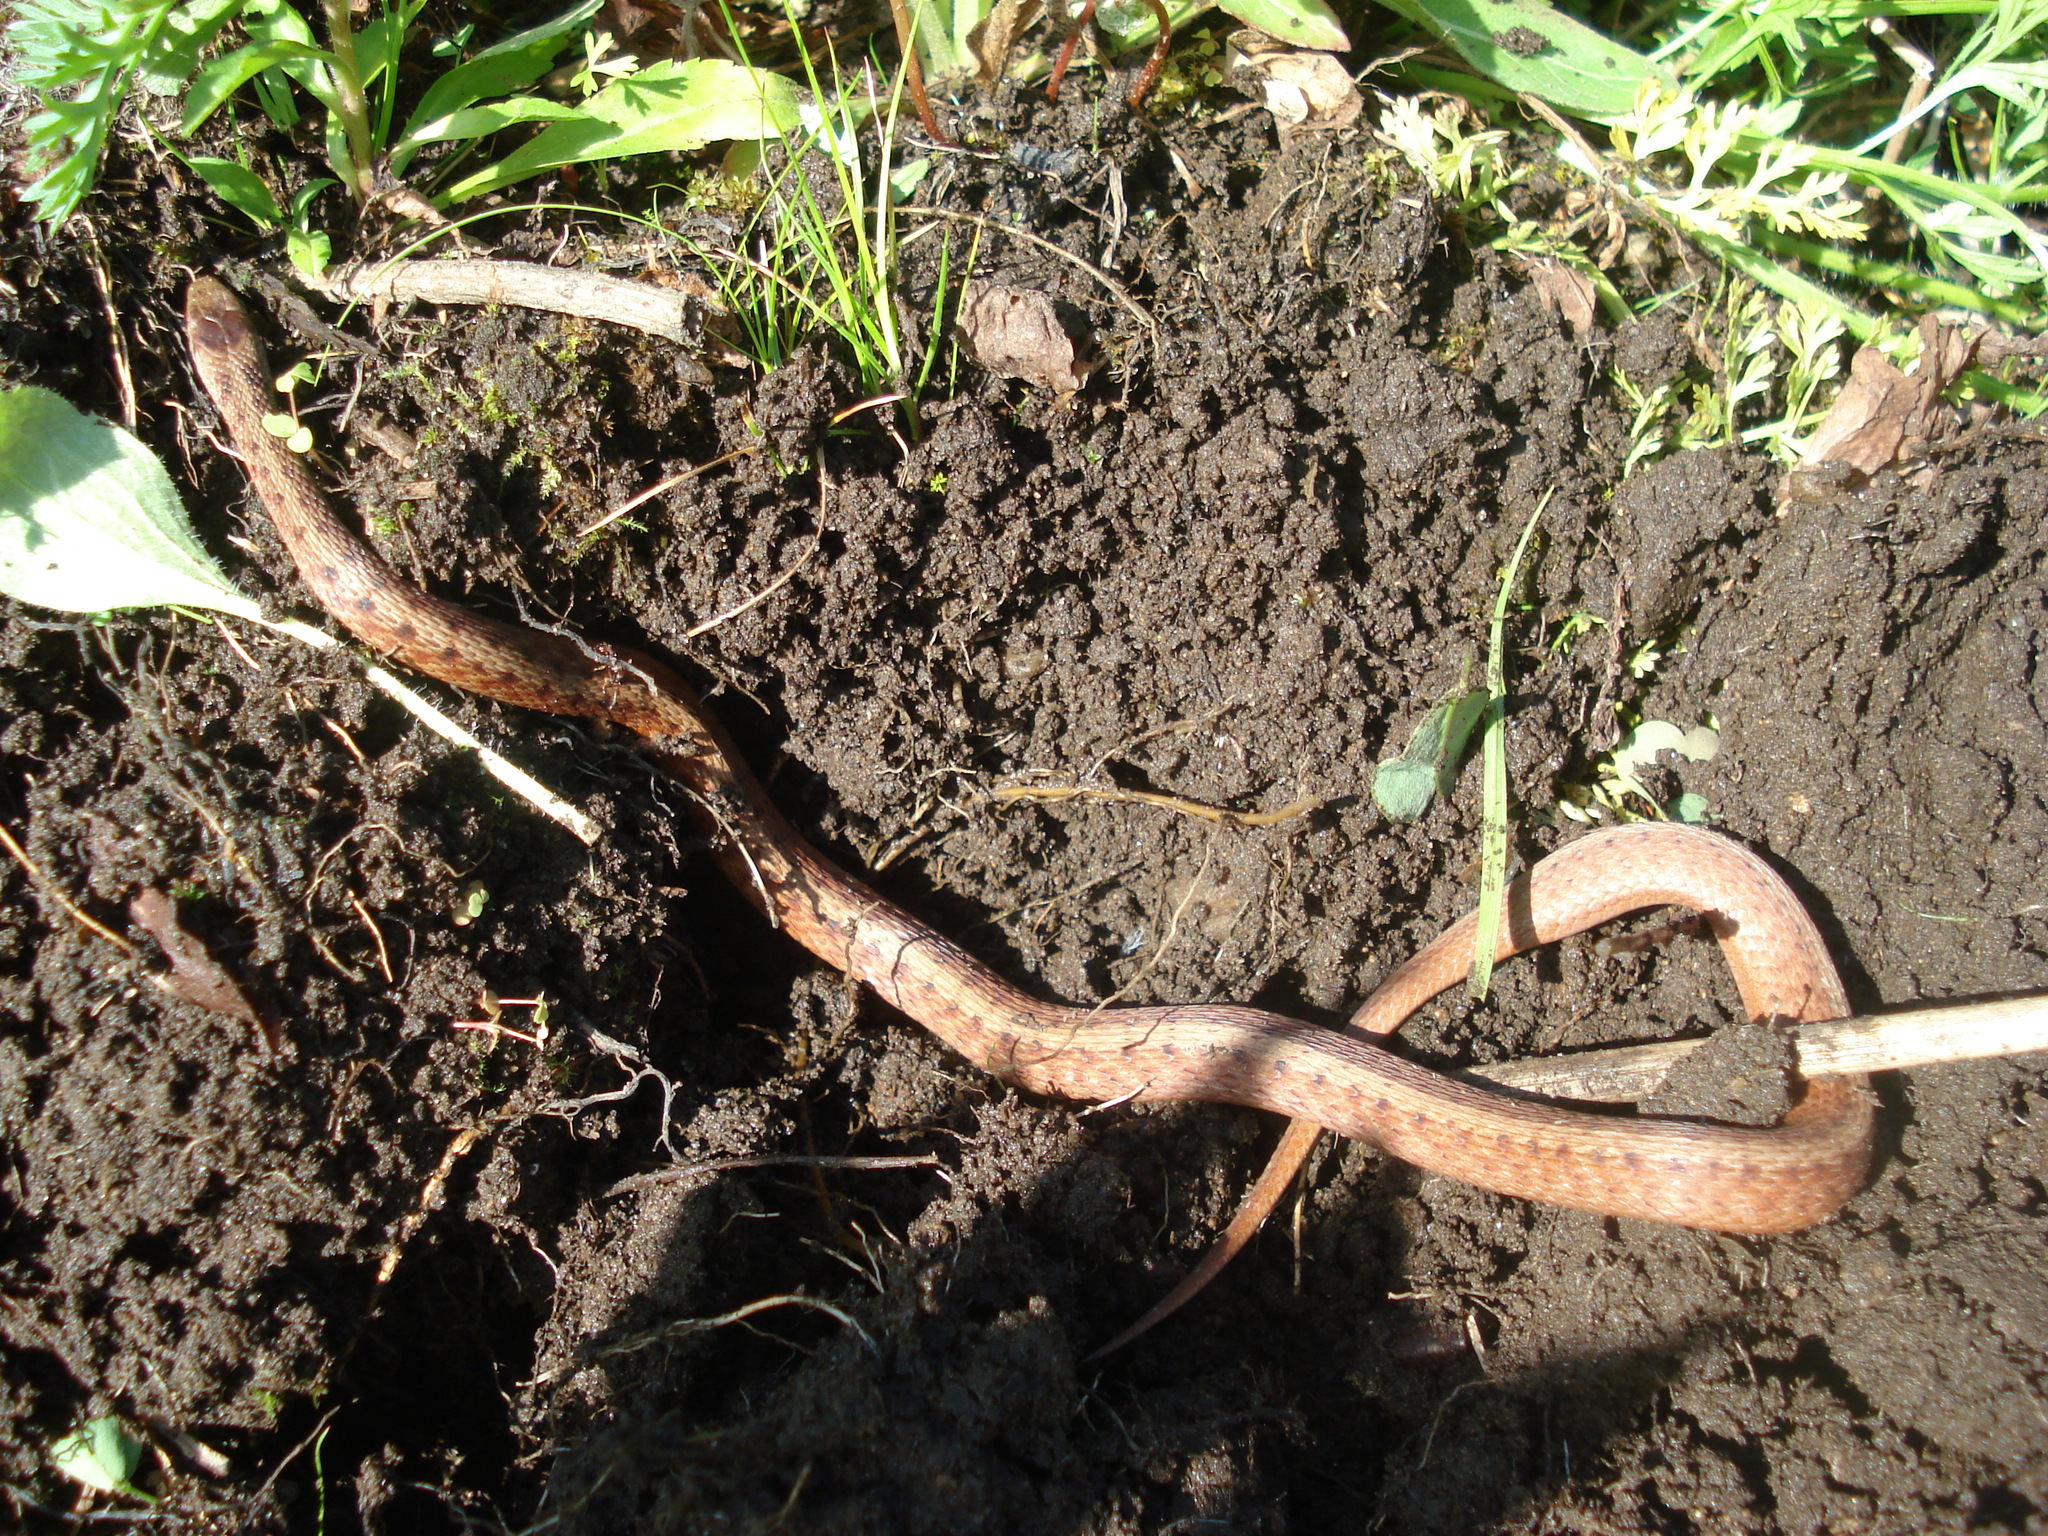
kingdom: Animalia
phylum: Chordata
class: Squamata
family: Colubridae
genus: Storeria
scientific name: Storeria dekayi
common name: (dekay’s) brown snake
